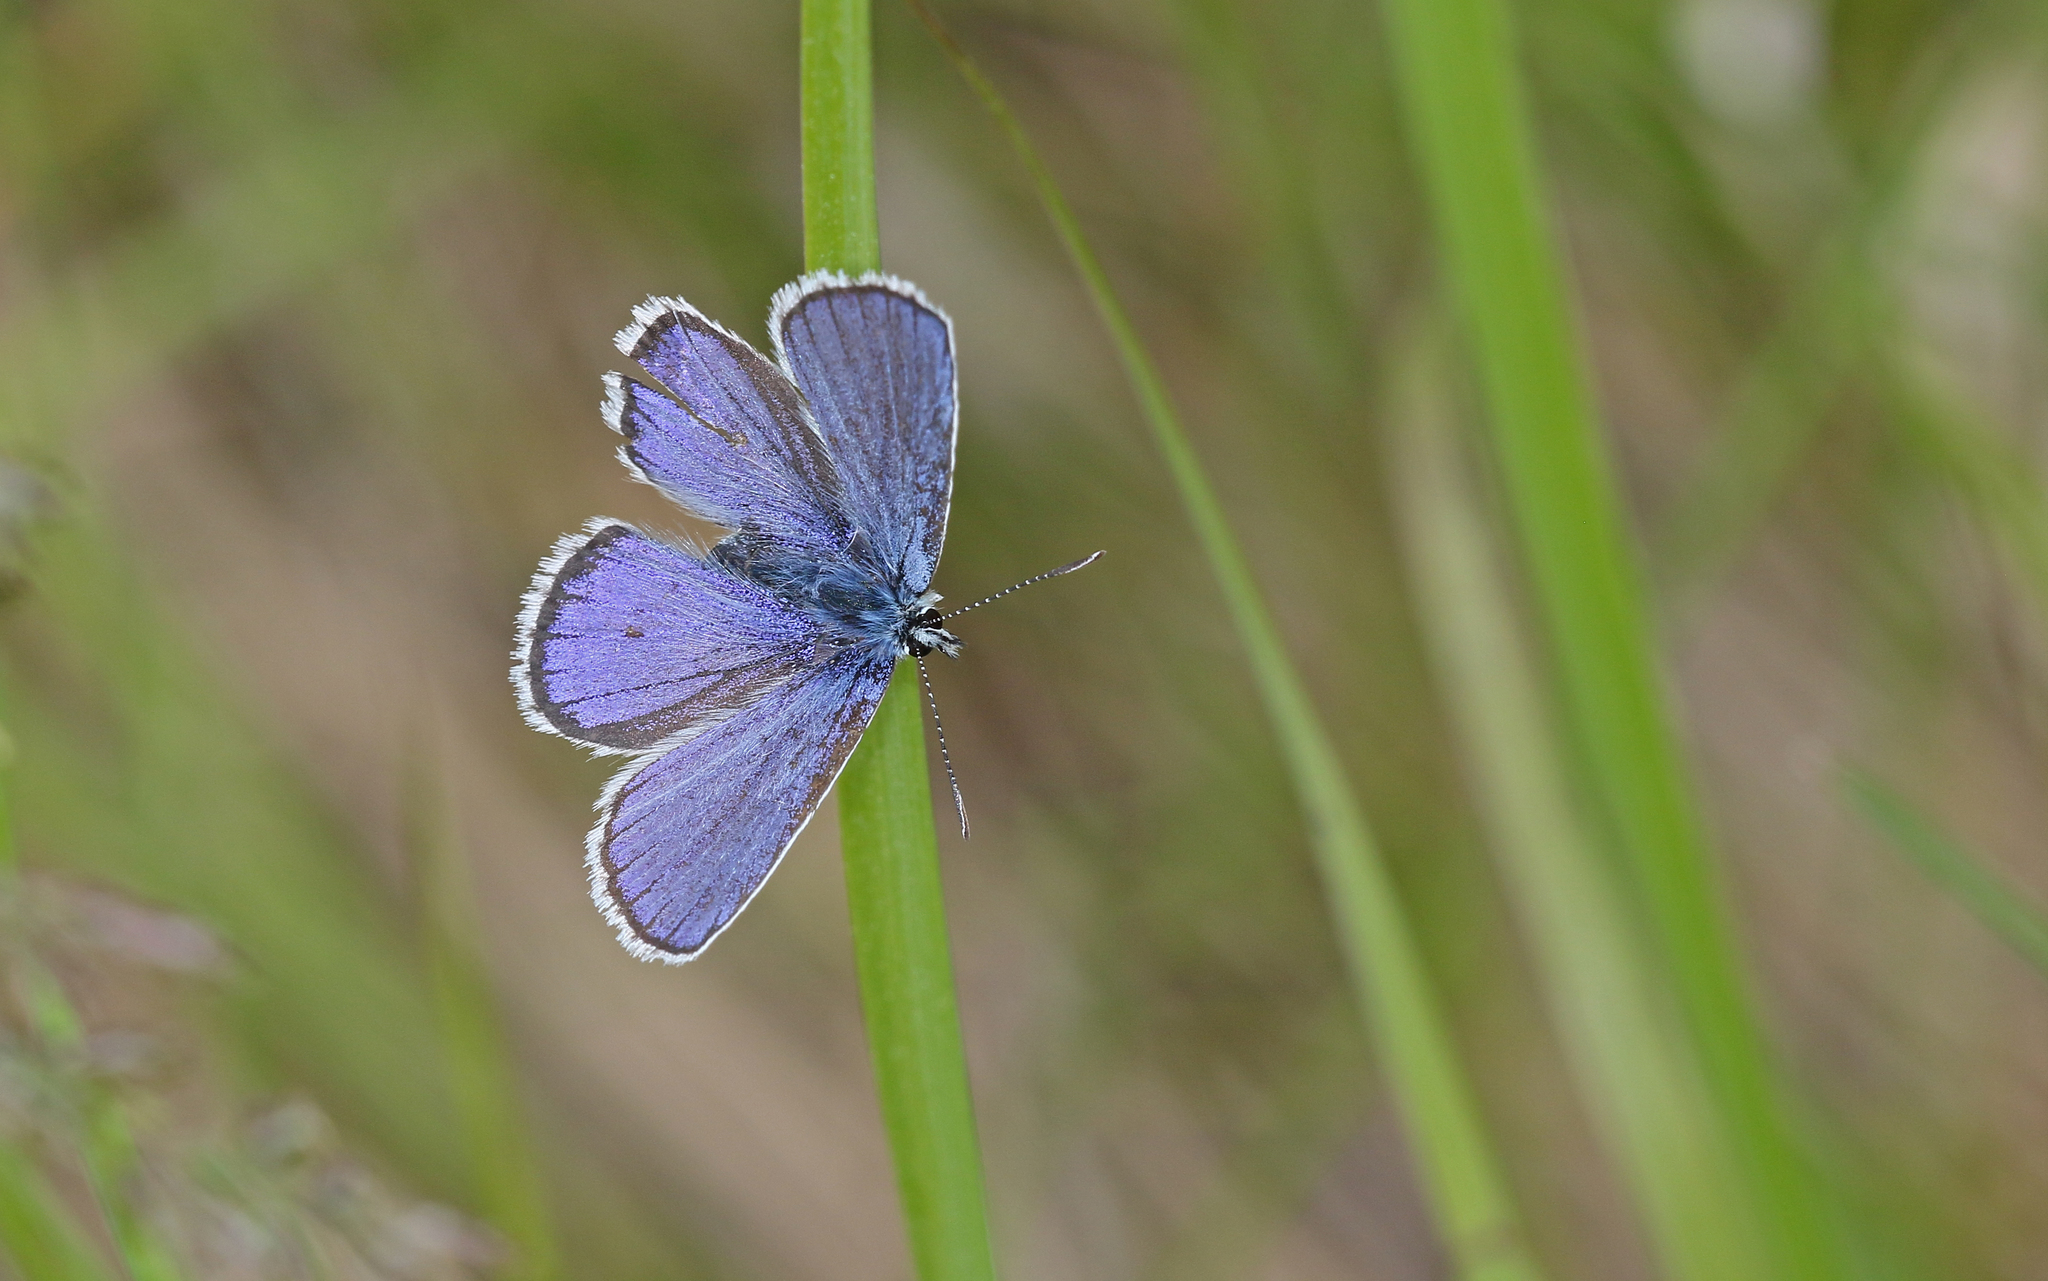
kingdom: Animalia
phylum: Arthropoda
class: Insecta
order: Lepidoptera
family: Lycaenidae
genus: Lycaeides
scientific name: Lycaeides idas
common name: Northern blue
